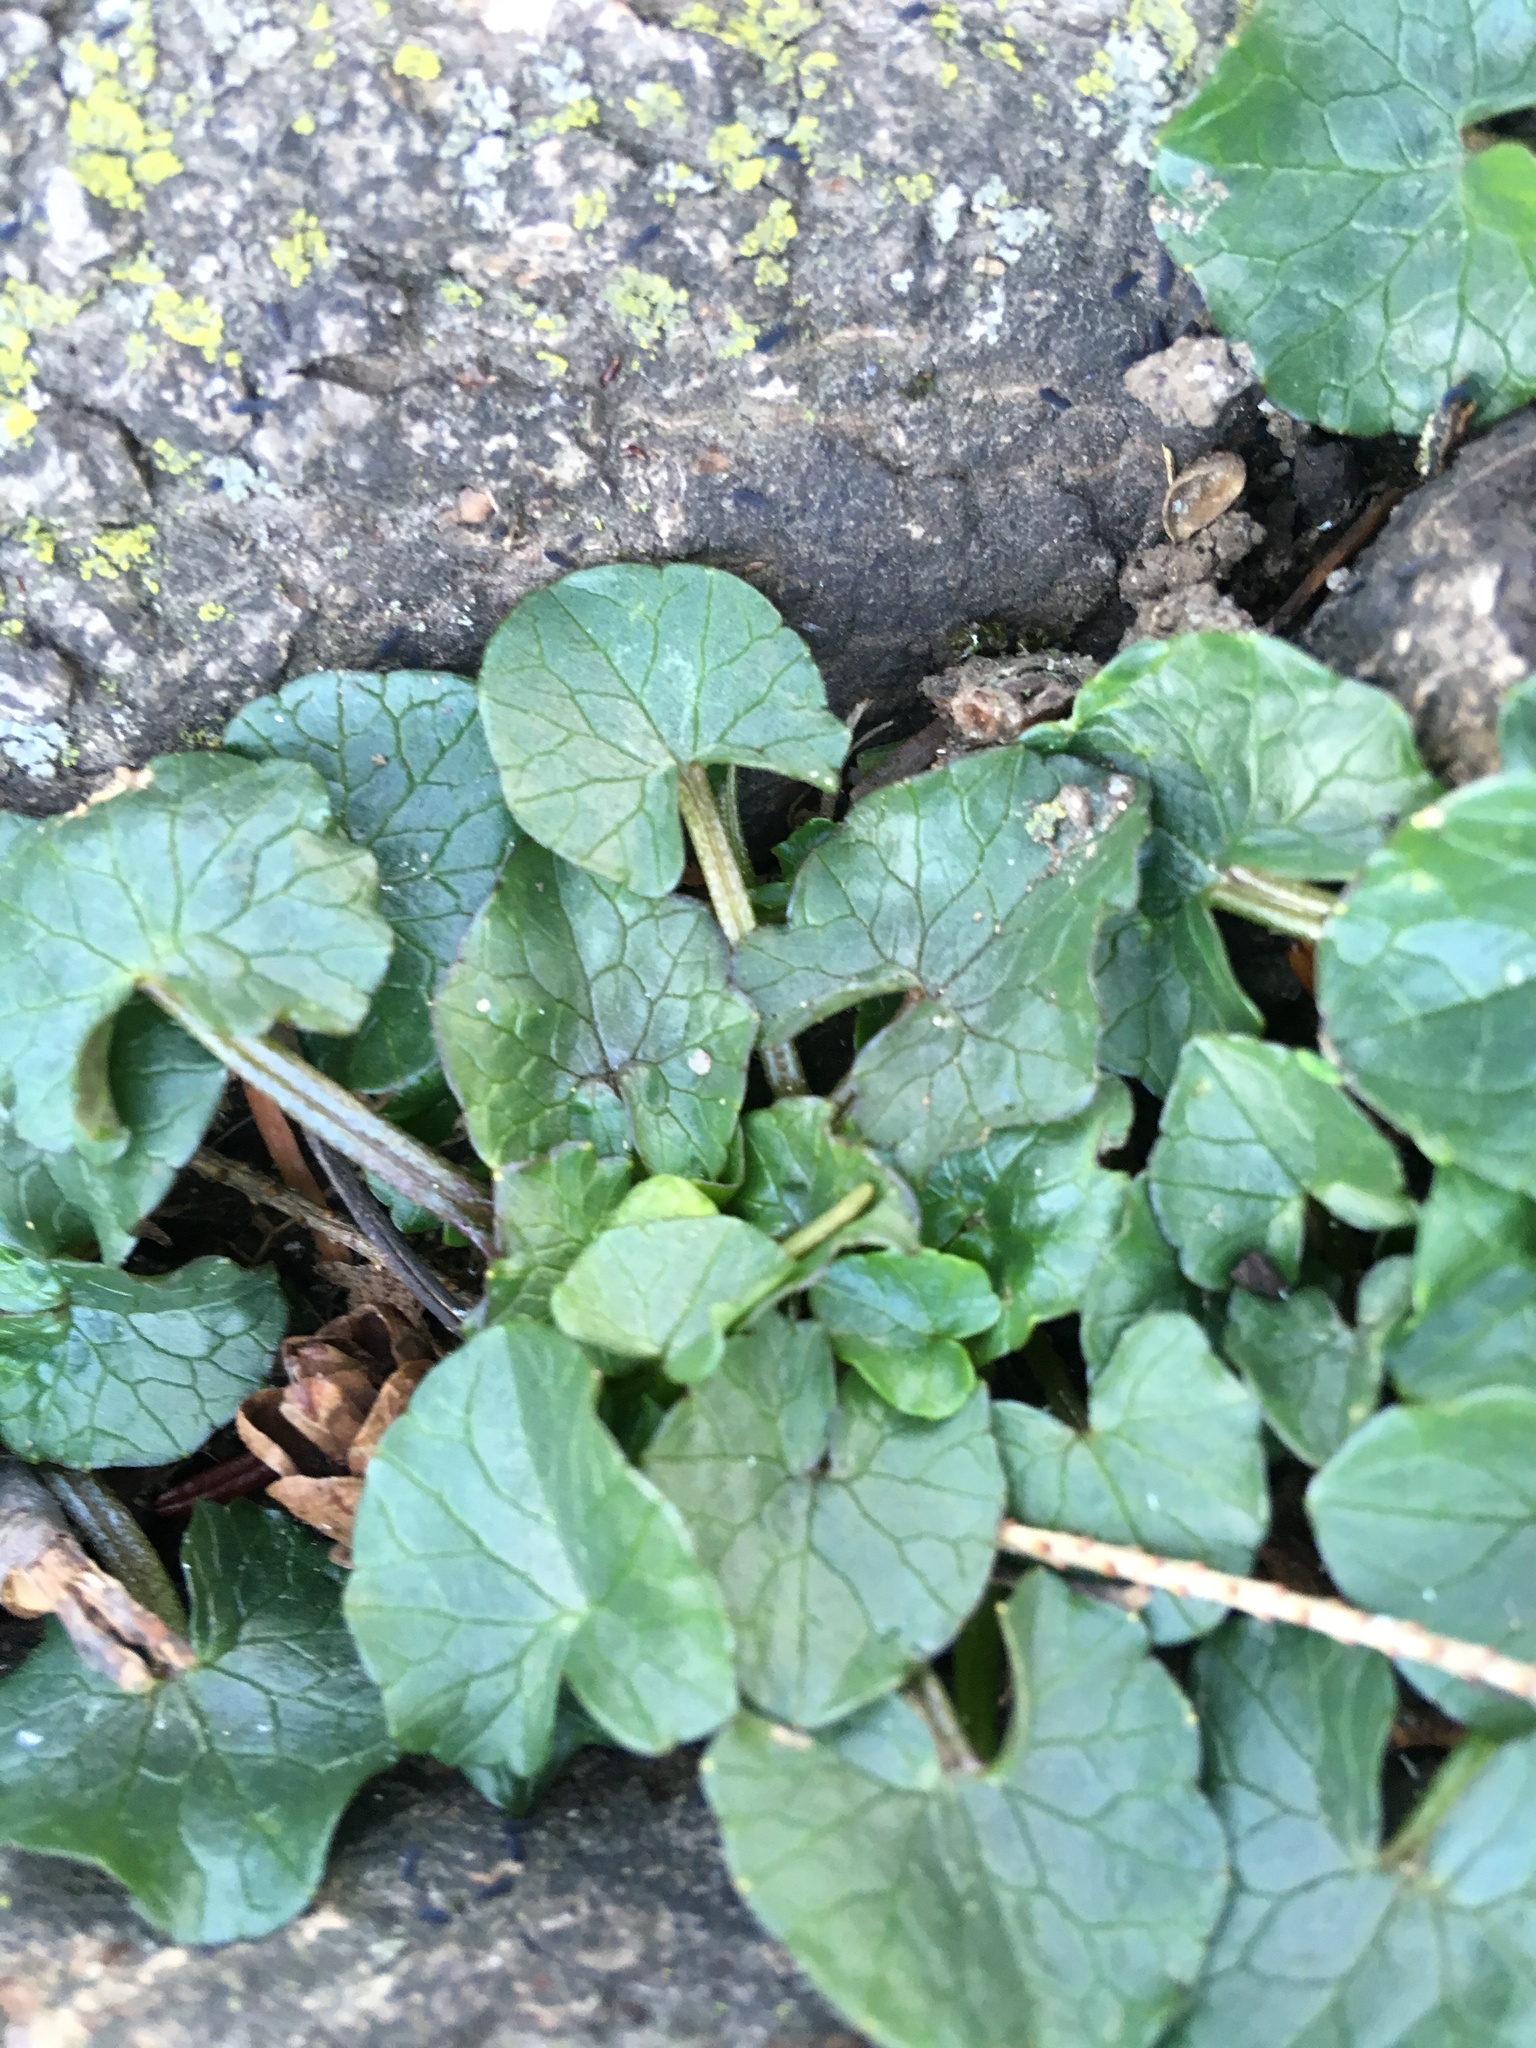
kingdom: Plantae
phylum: Tracheophyta
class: Magnoliopsida
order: Ranunculales
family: Ranunculaceae
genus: Ficaria
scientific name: Ficaria verna
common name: Lesser celandine
